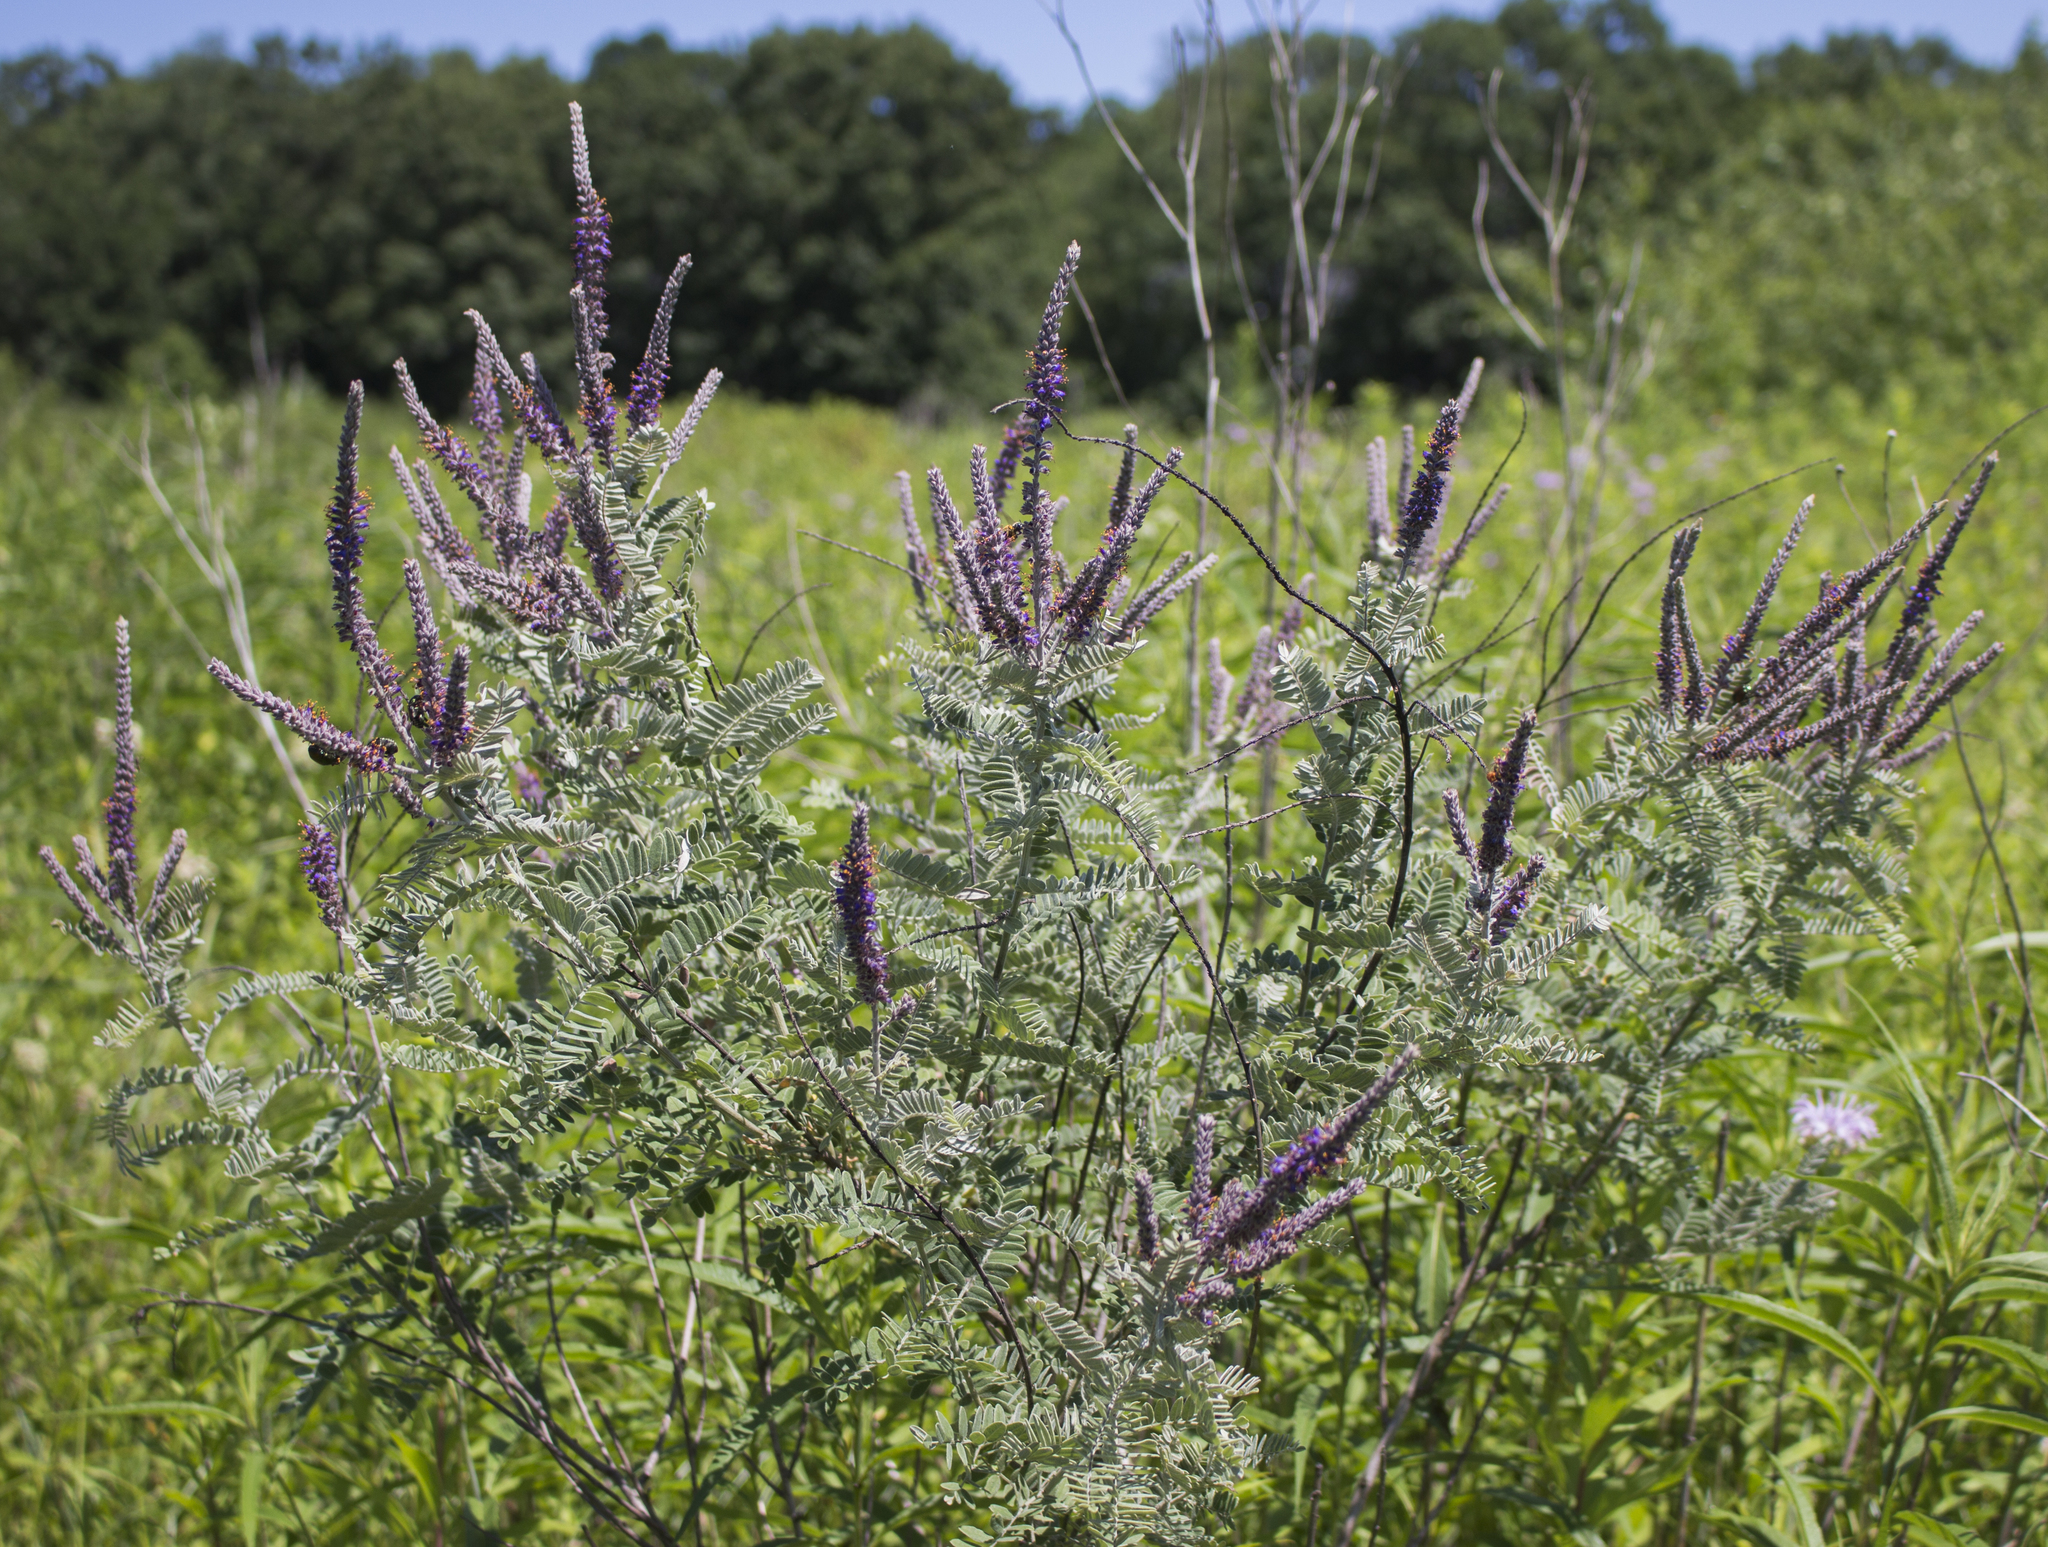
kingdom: Plantae
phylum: Tracheophyta
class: Magnoliopsida
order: Fabales
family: Fabaceae
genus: Amorpha
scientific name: Amorpha canescens
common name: Leadplant
